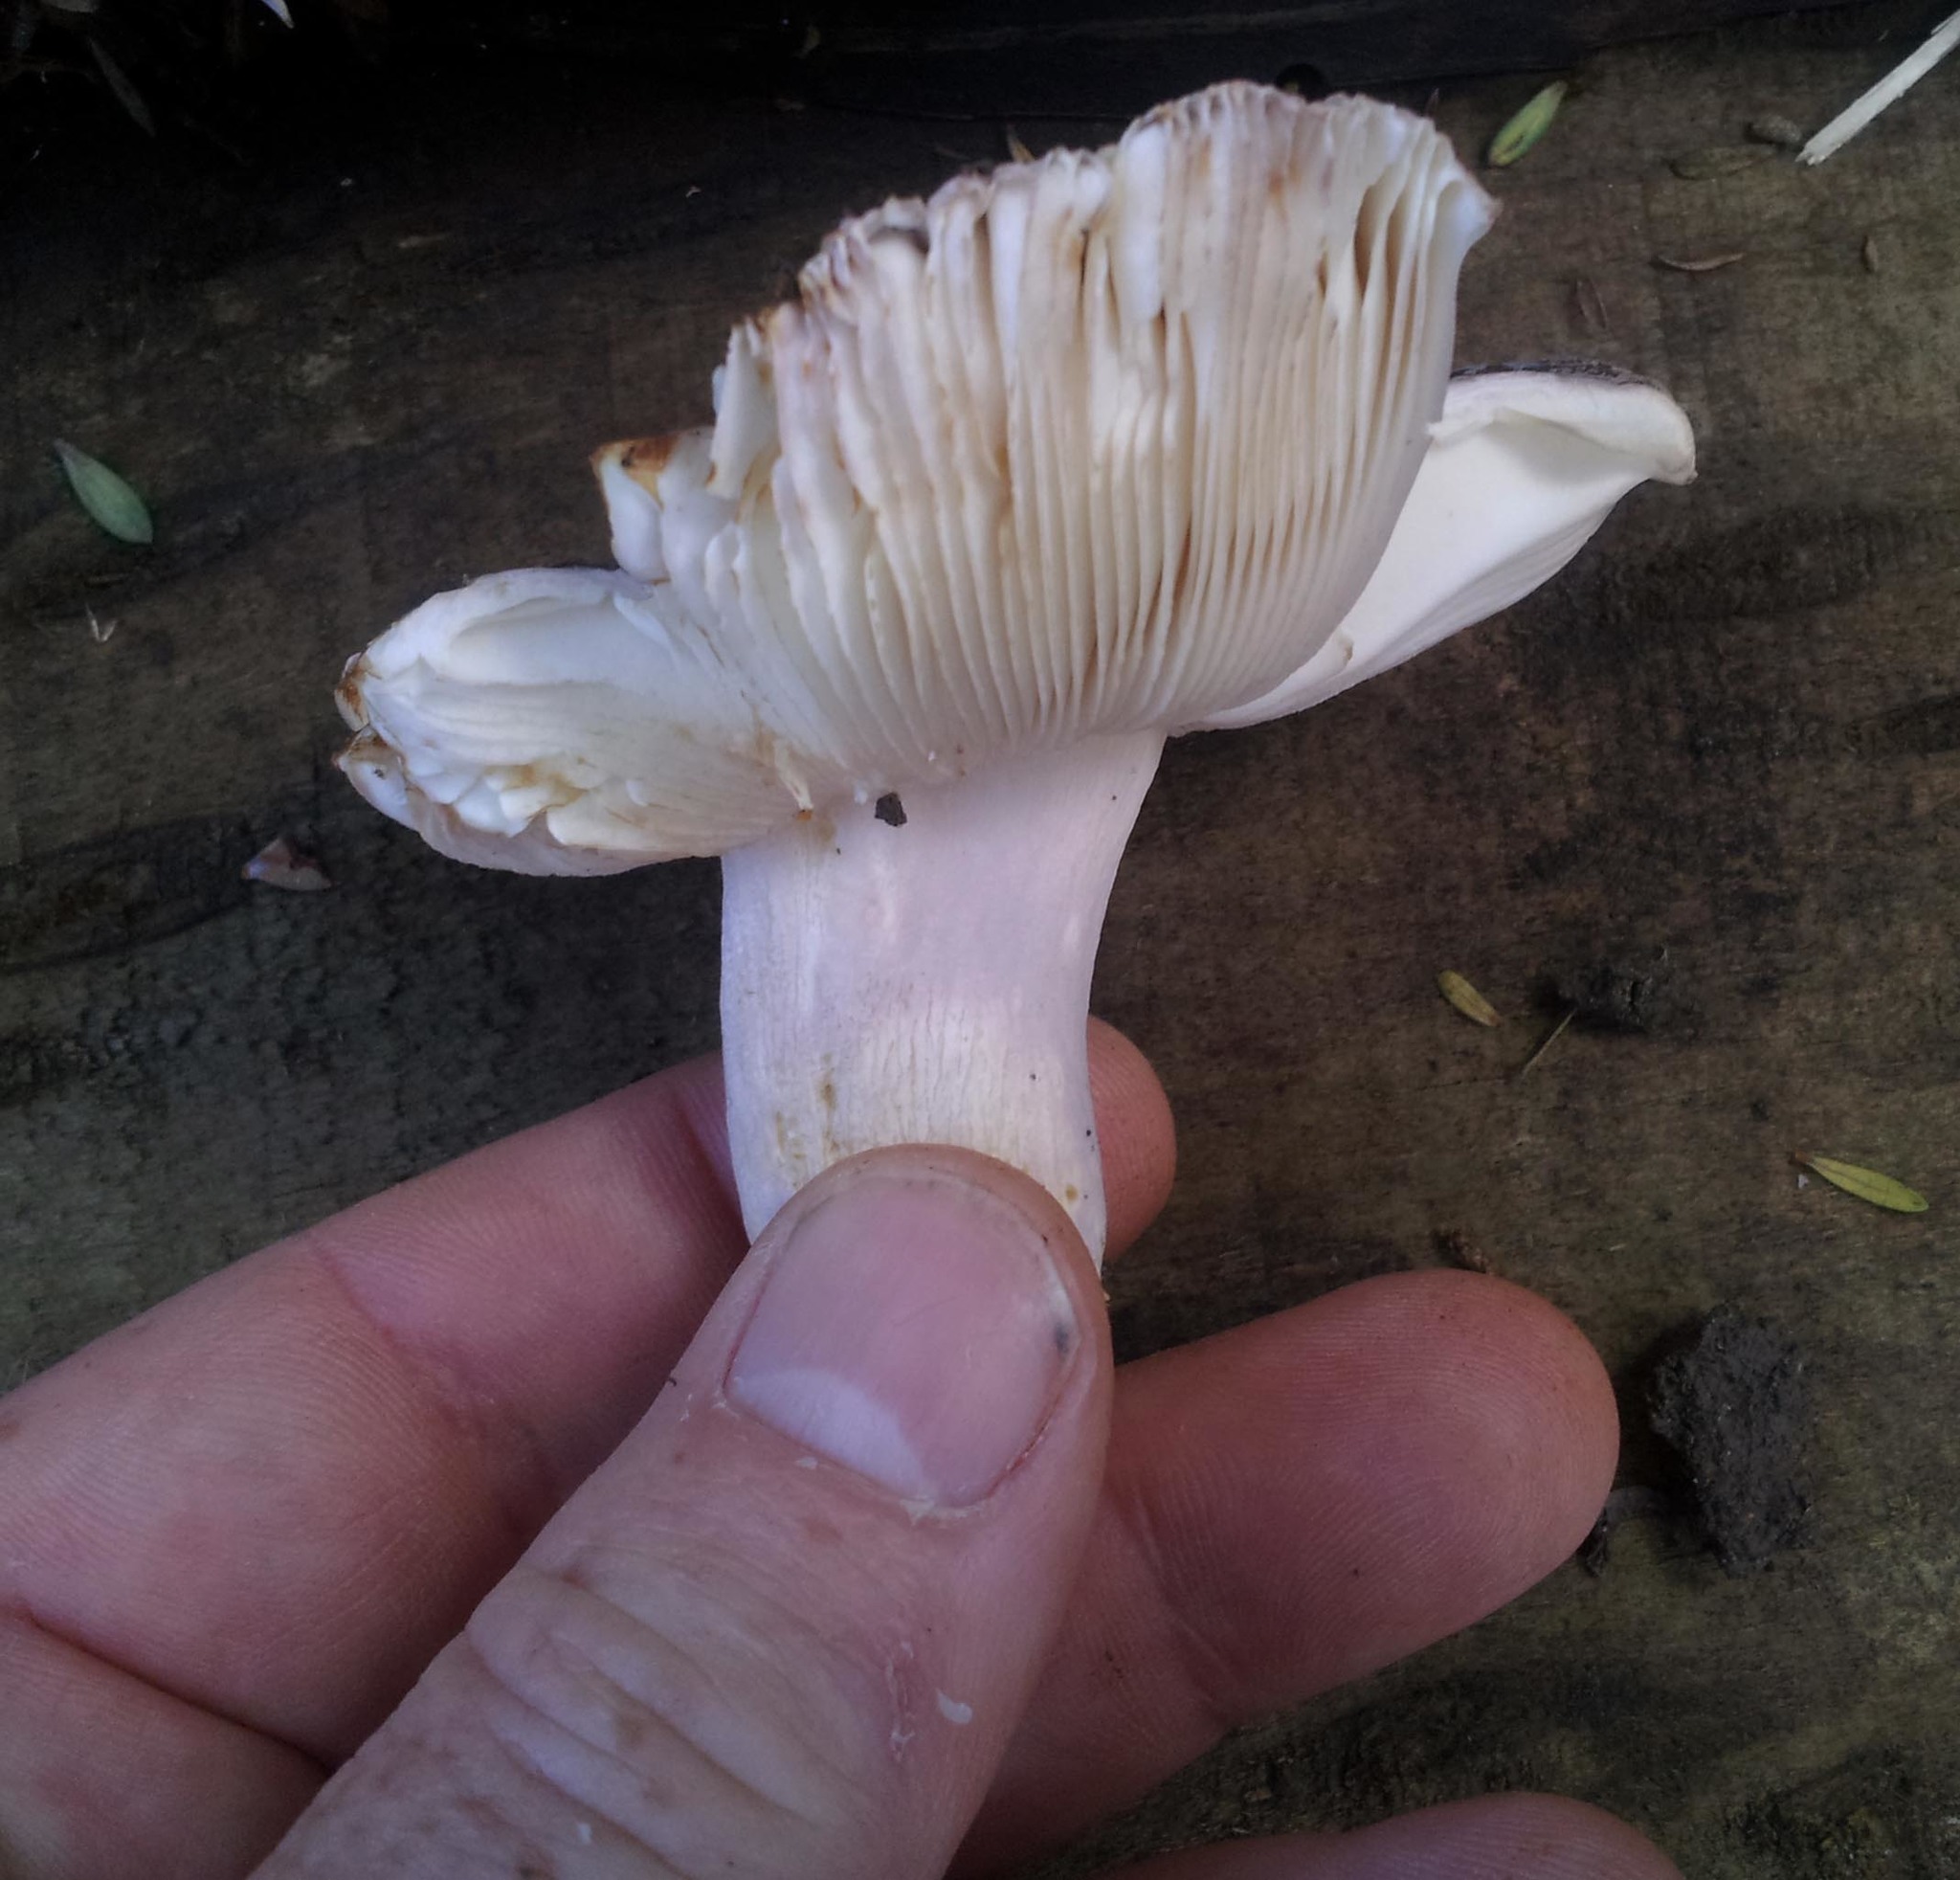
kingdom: Fungi
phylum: Basidiomycota
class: Agaricomycetes
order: Russulales
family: Russulaceae
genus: Russula
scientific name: Russula griseoviridis
